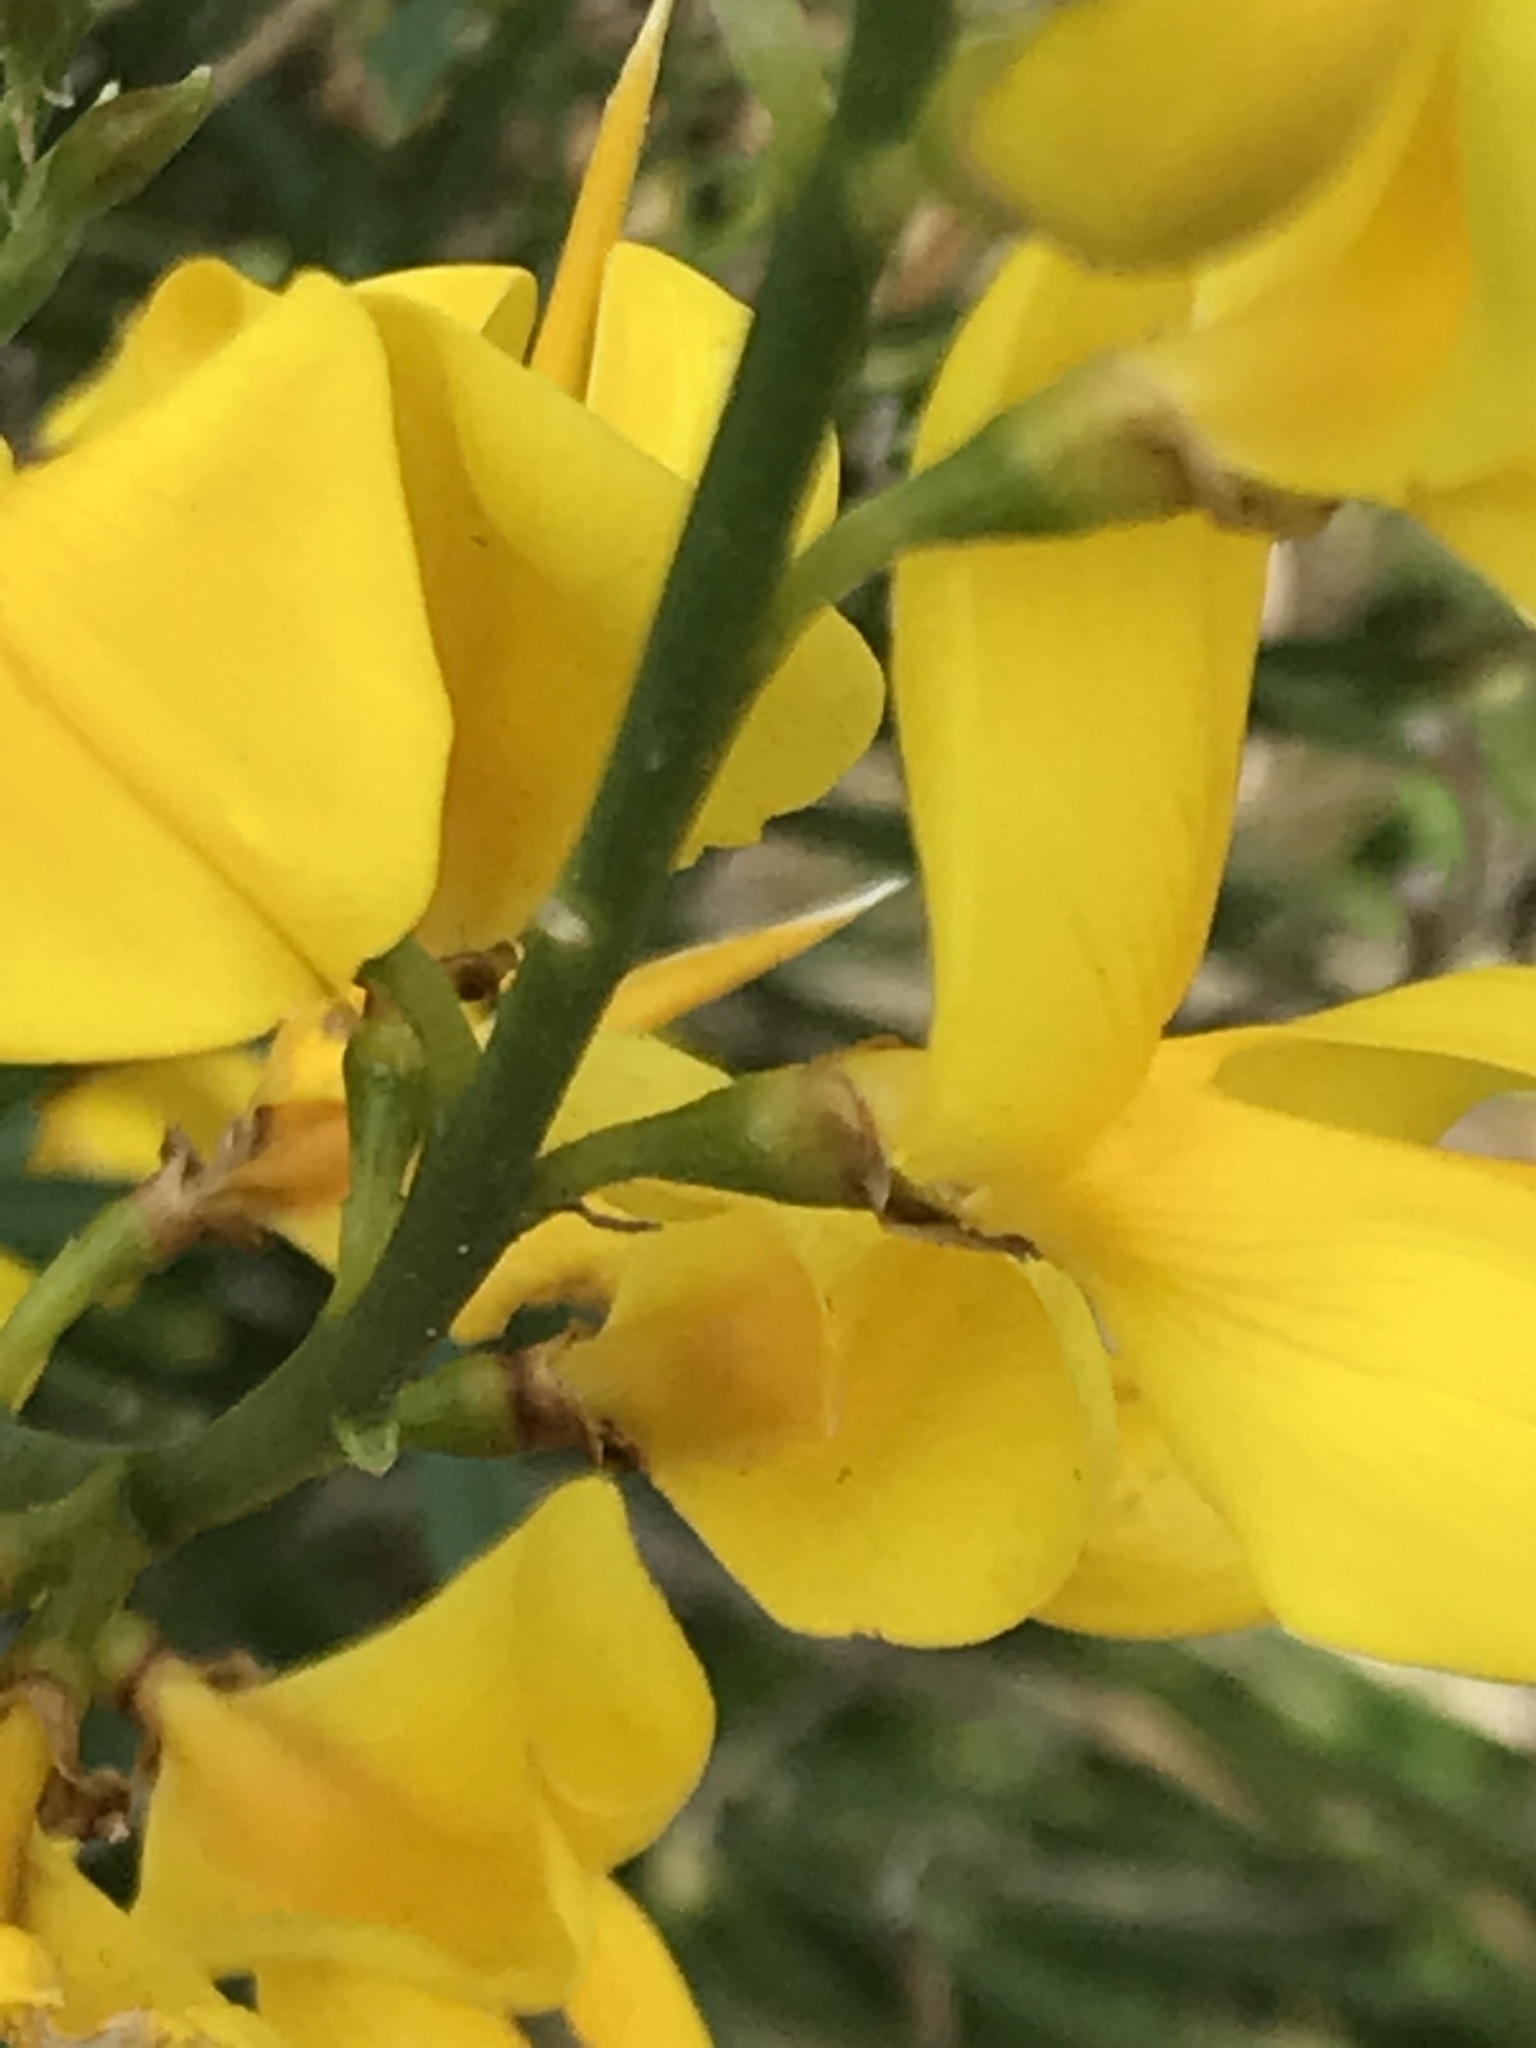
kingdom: Plantae
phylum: Tracheophyta
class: Magnoliopsida
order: Fabales
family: Fabaceae
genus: Spartium
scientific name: Spartium junceum
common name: Spanish broom
